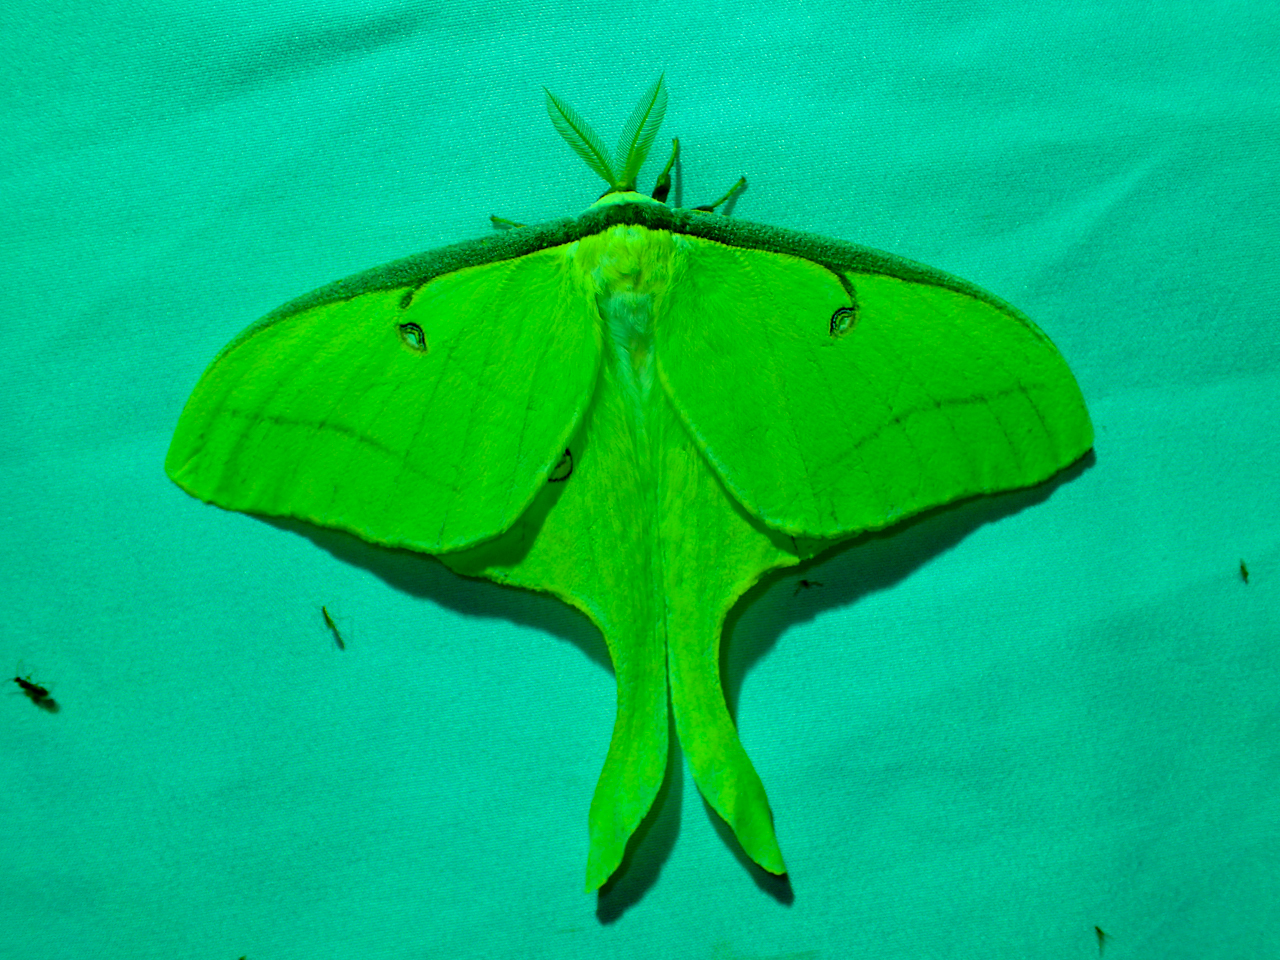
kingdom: Animalia
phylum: Arthropoda
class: Insecta
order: Lepidoptera
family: Saturniidae
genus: Actias
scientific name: Actias luna
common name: Luna moth
